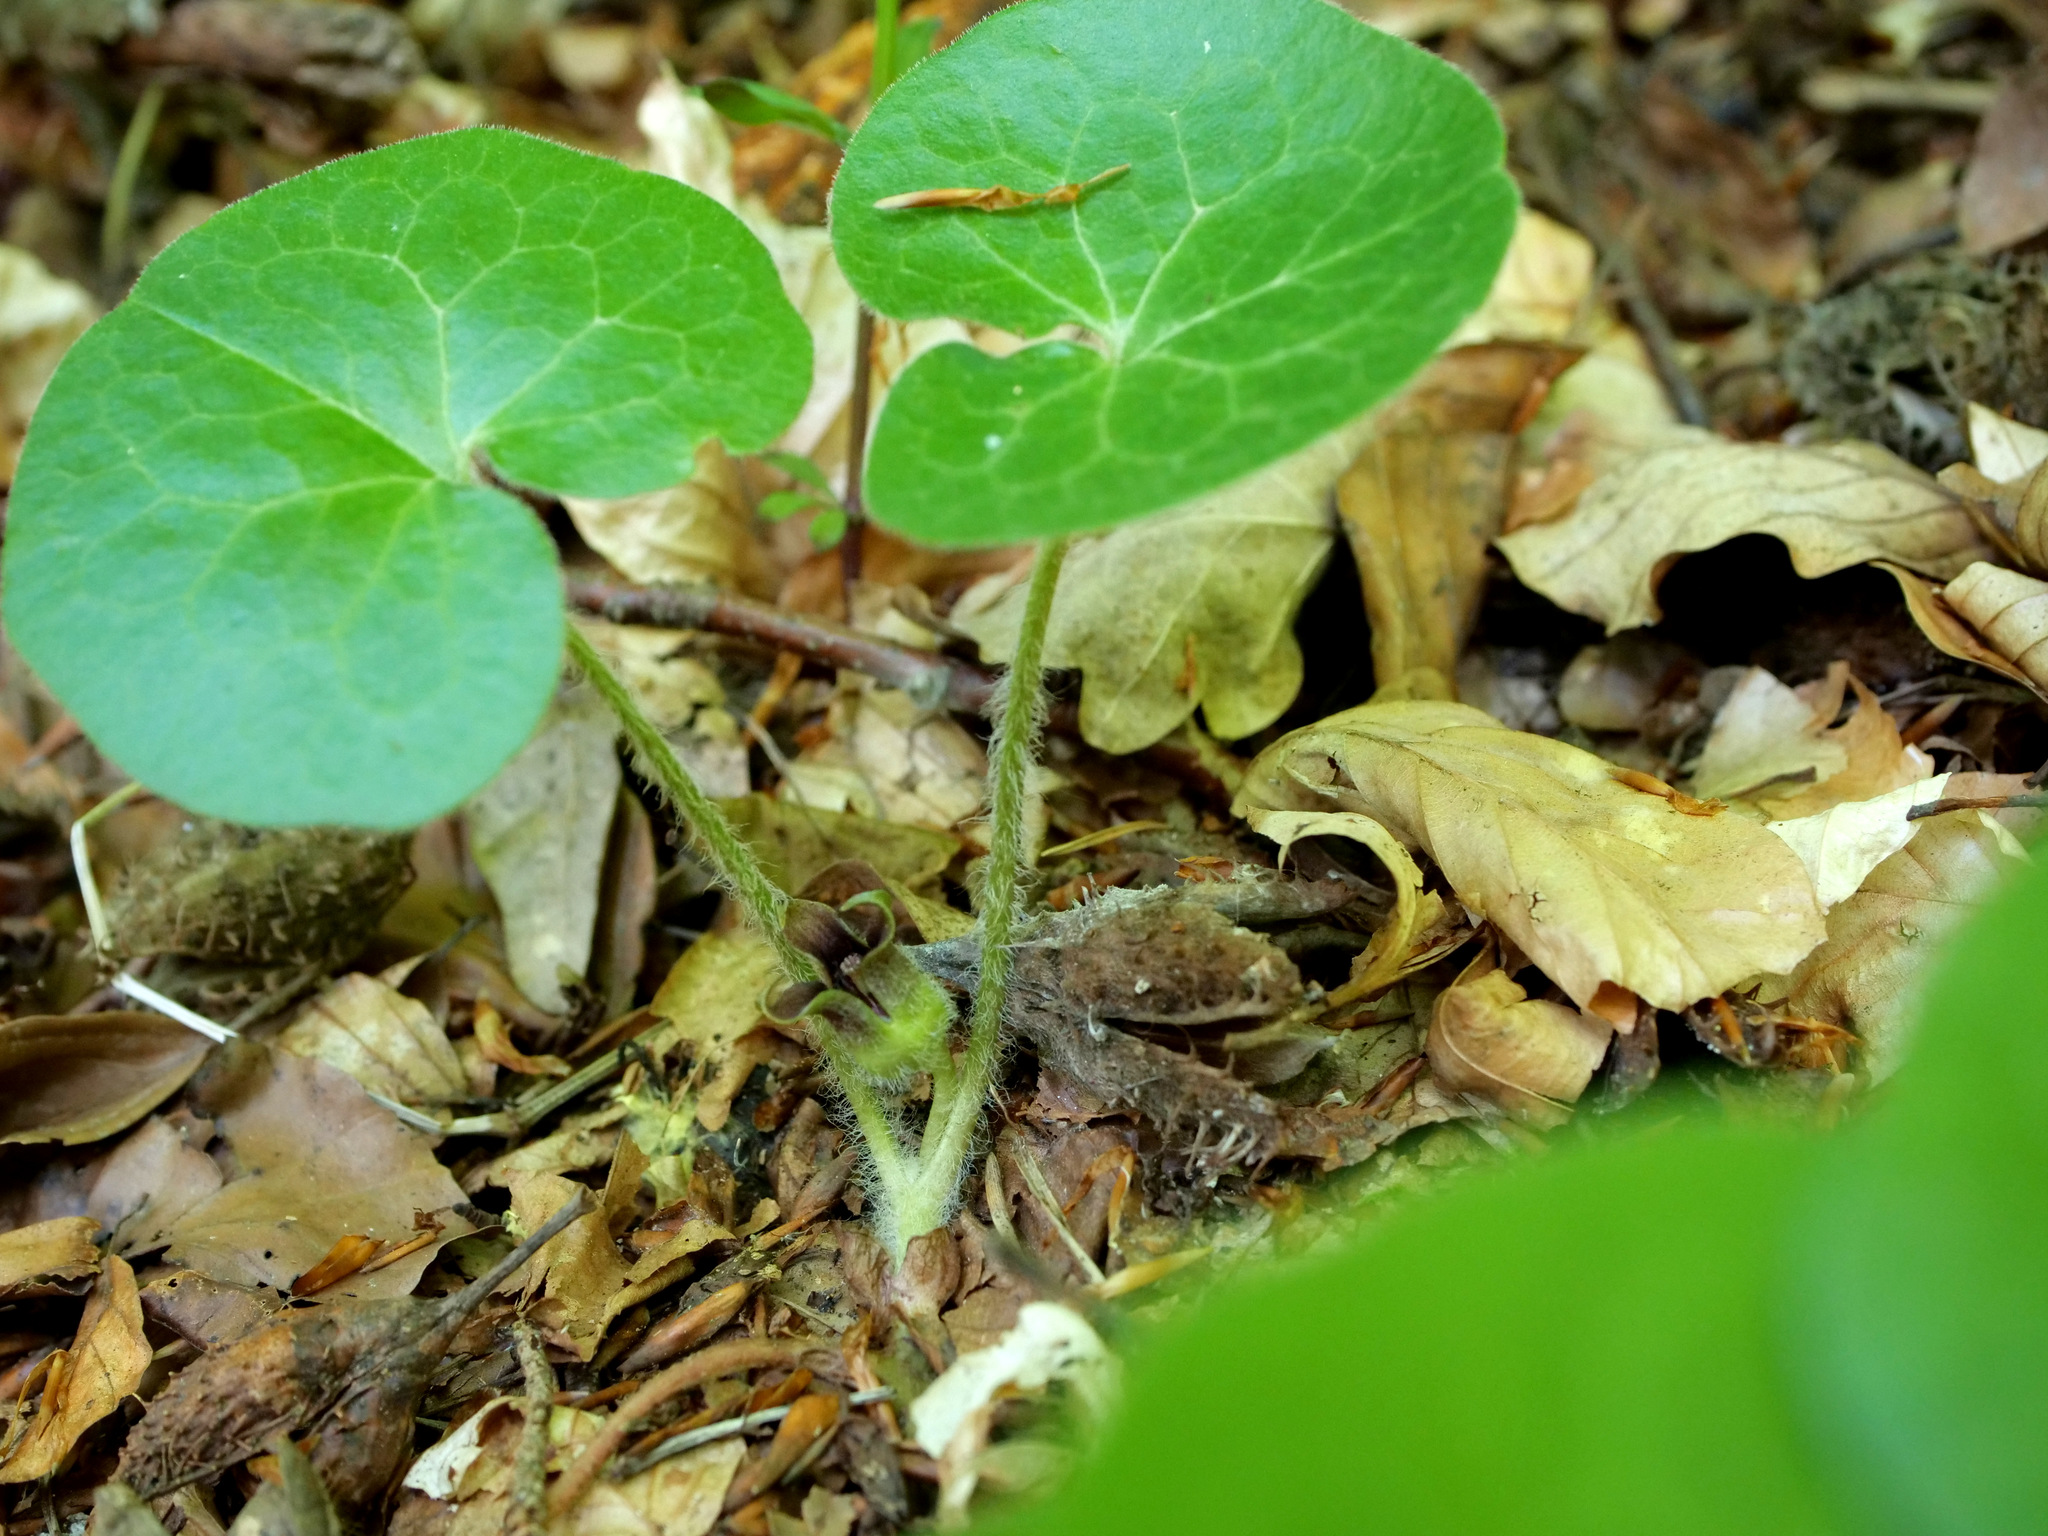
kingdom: Plantae
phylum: Tracheophyta
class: Magnoliopsida
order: Piperales
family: Aristolochiaceae
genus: Asarum
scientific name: Asarum europaeum
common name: Asarabacca
